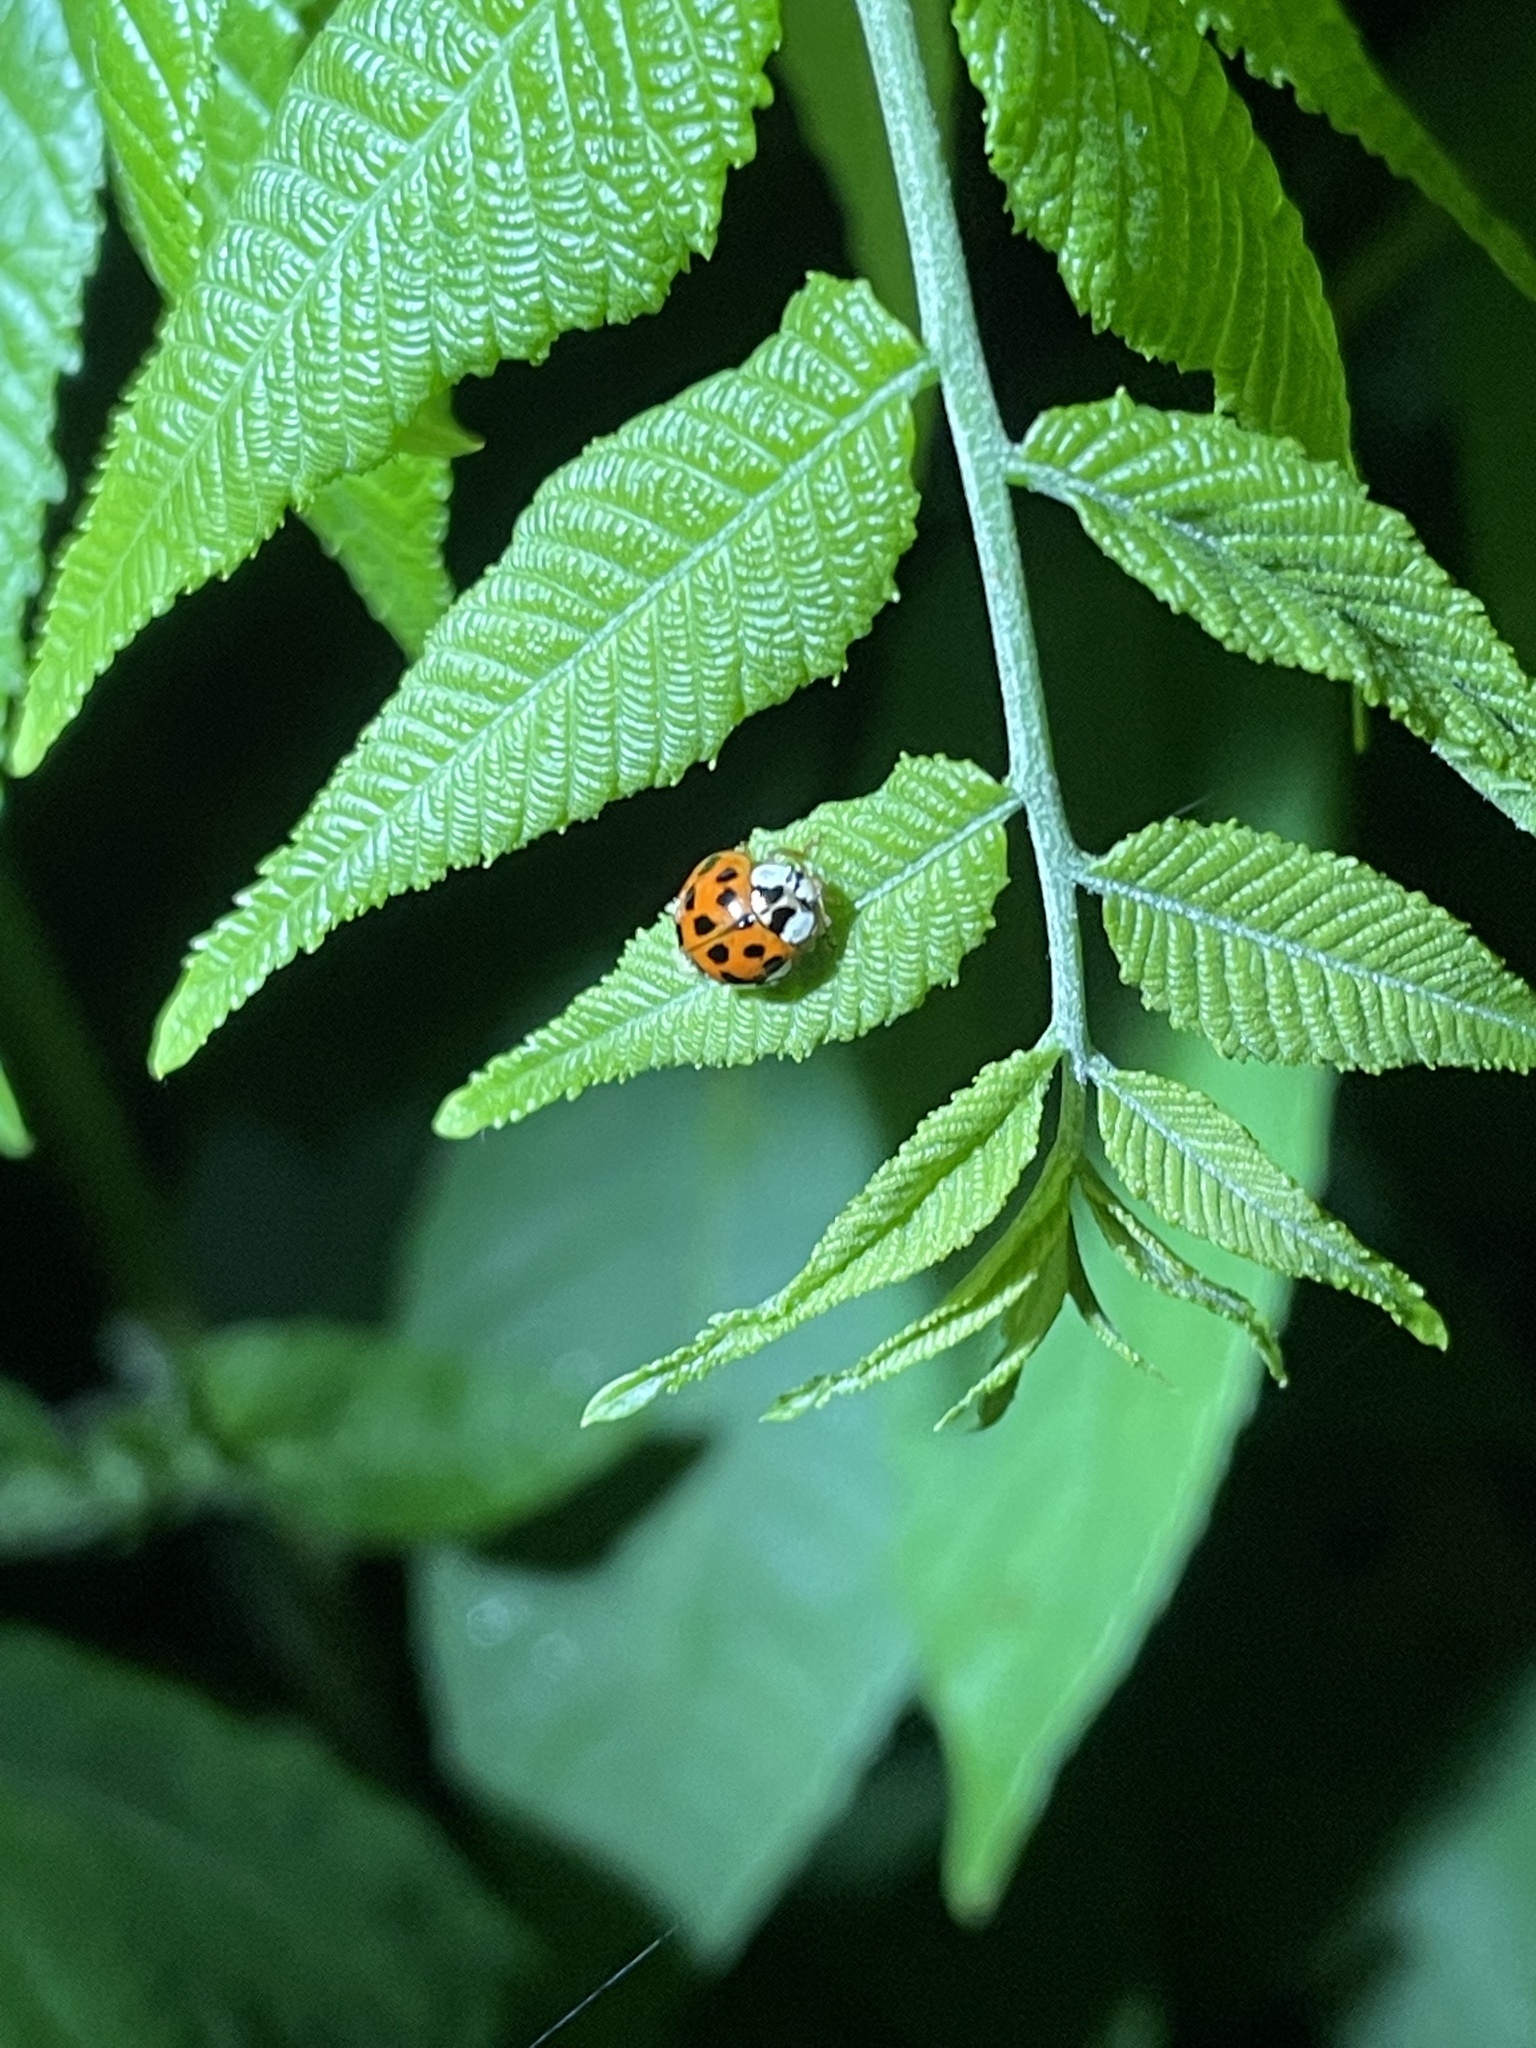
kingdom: Animalia
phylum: Arthropoda
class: Insecta
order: Coleoptera
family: Coccinellidae
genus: Harmonia
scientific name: Harmonia axyridis
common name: Harlequin ladybird
